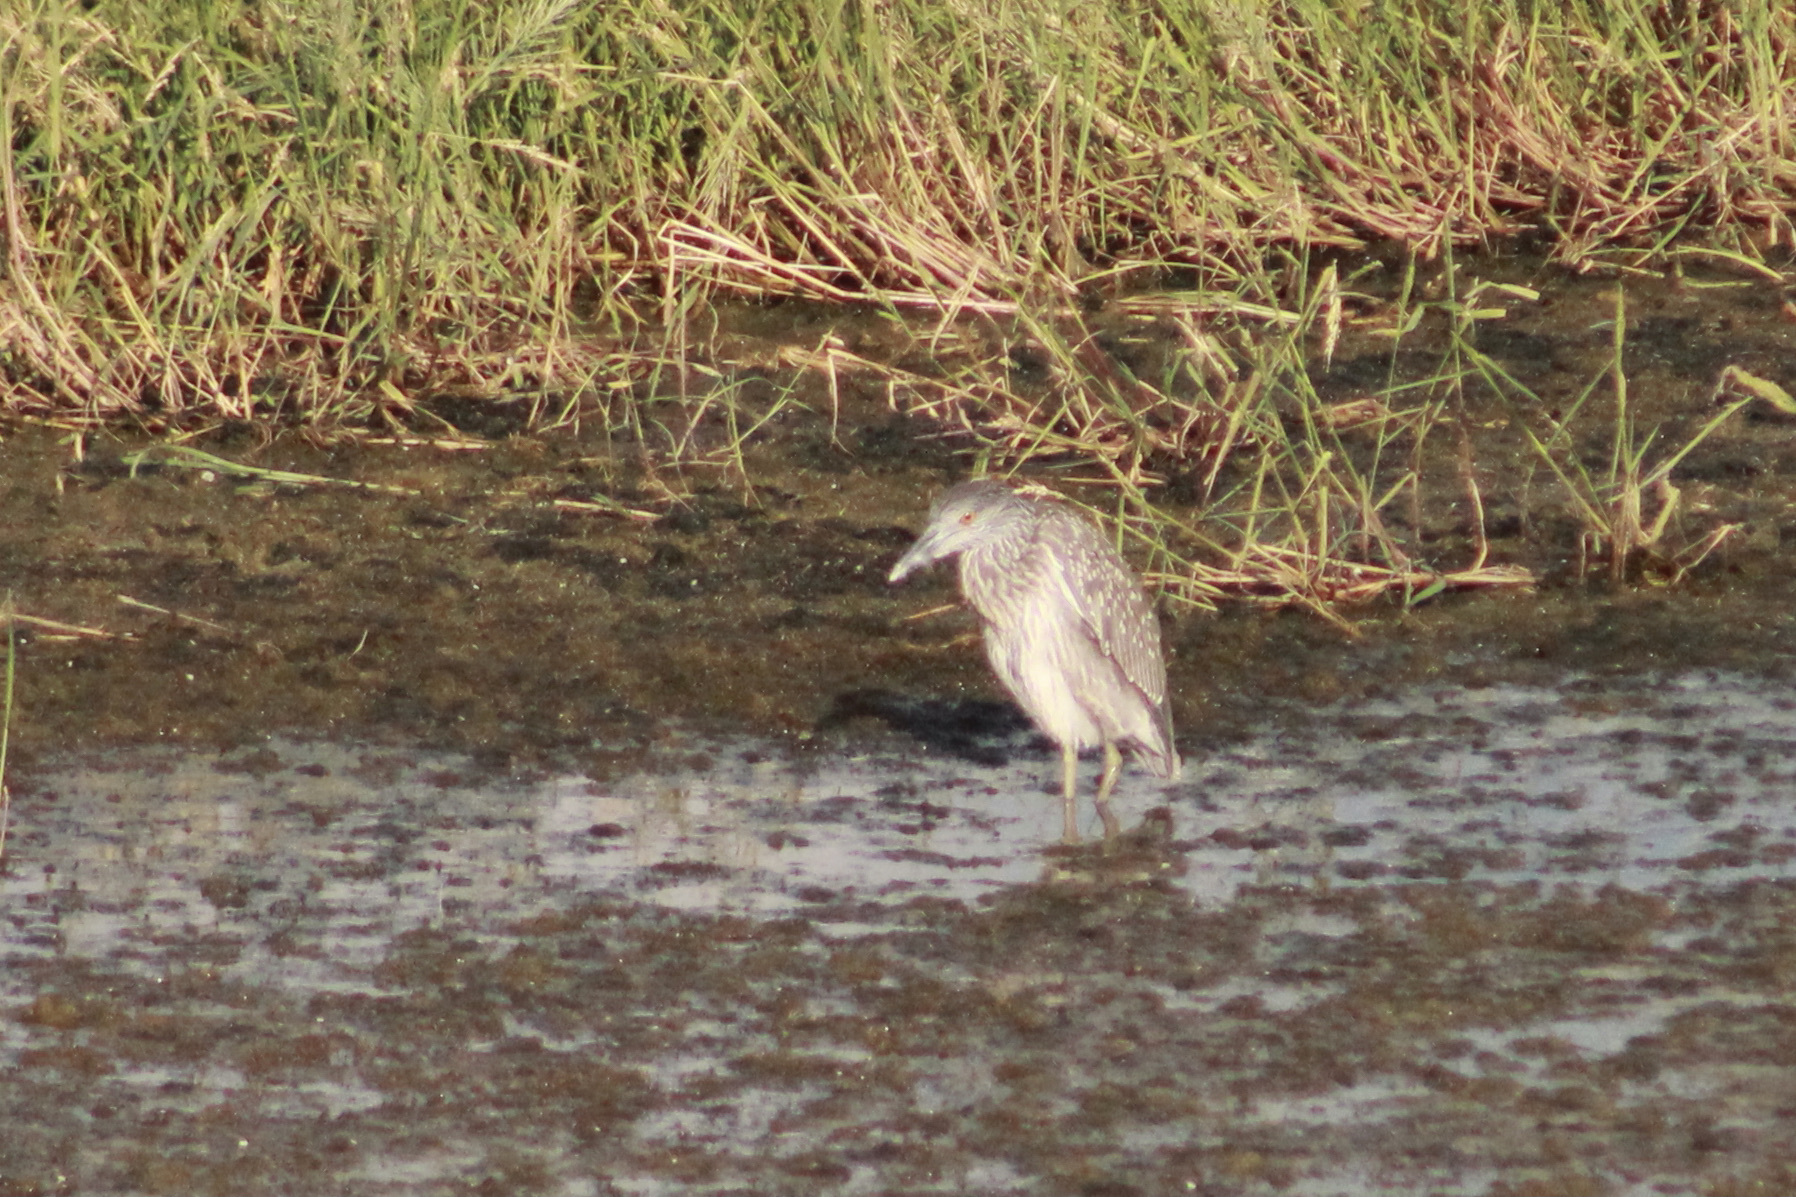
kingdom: Animalia
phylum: Chordata
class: Aves
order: Pelecaniformes
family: Ardeidae
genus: Nyctanassa
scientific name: Nyctanassa violacea
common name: Yellow-crowned night heron
